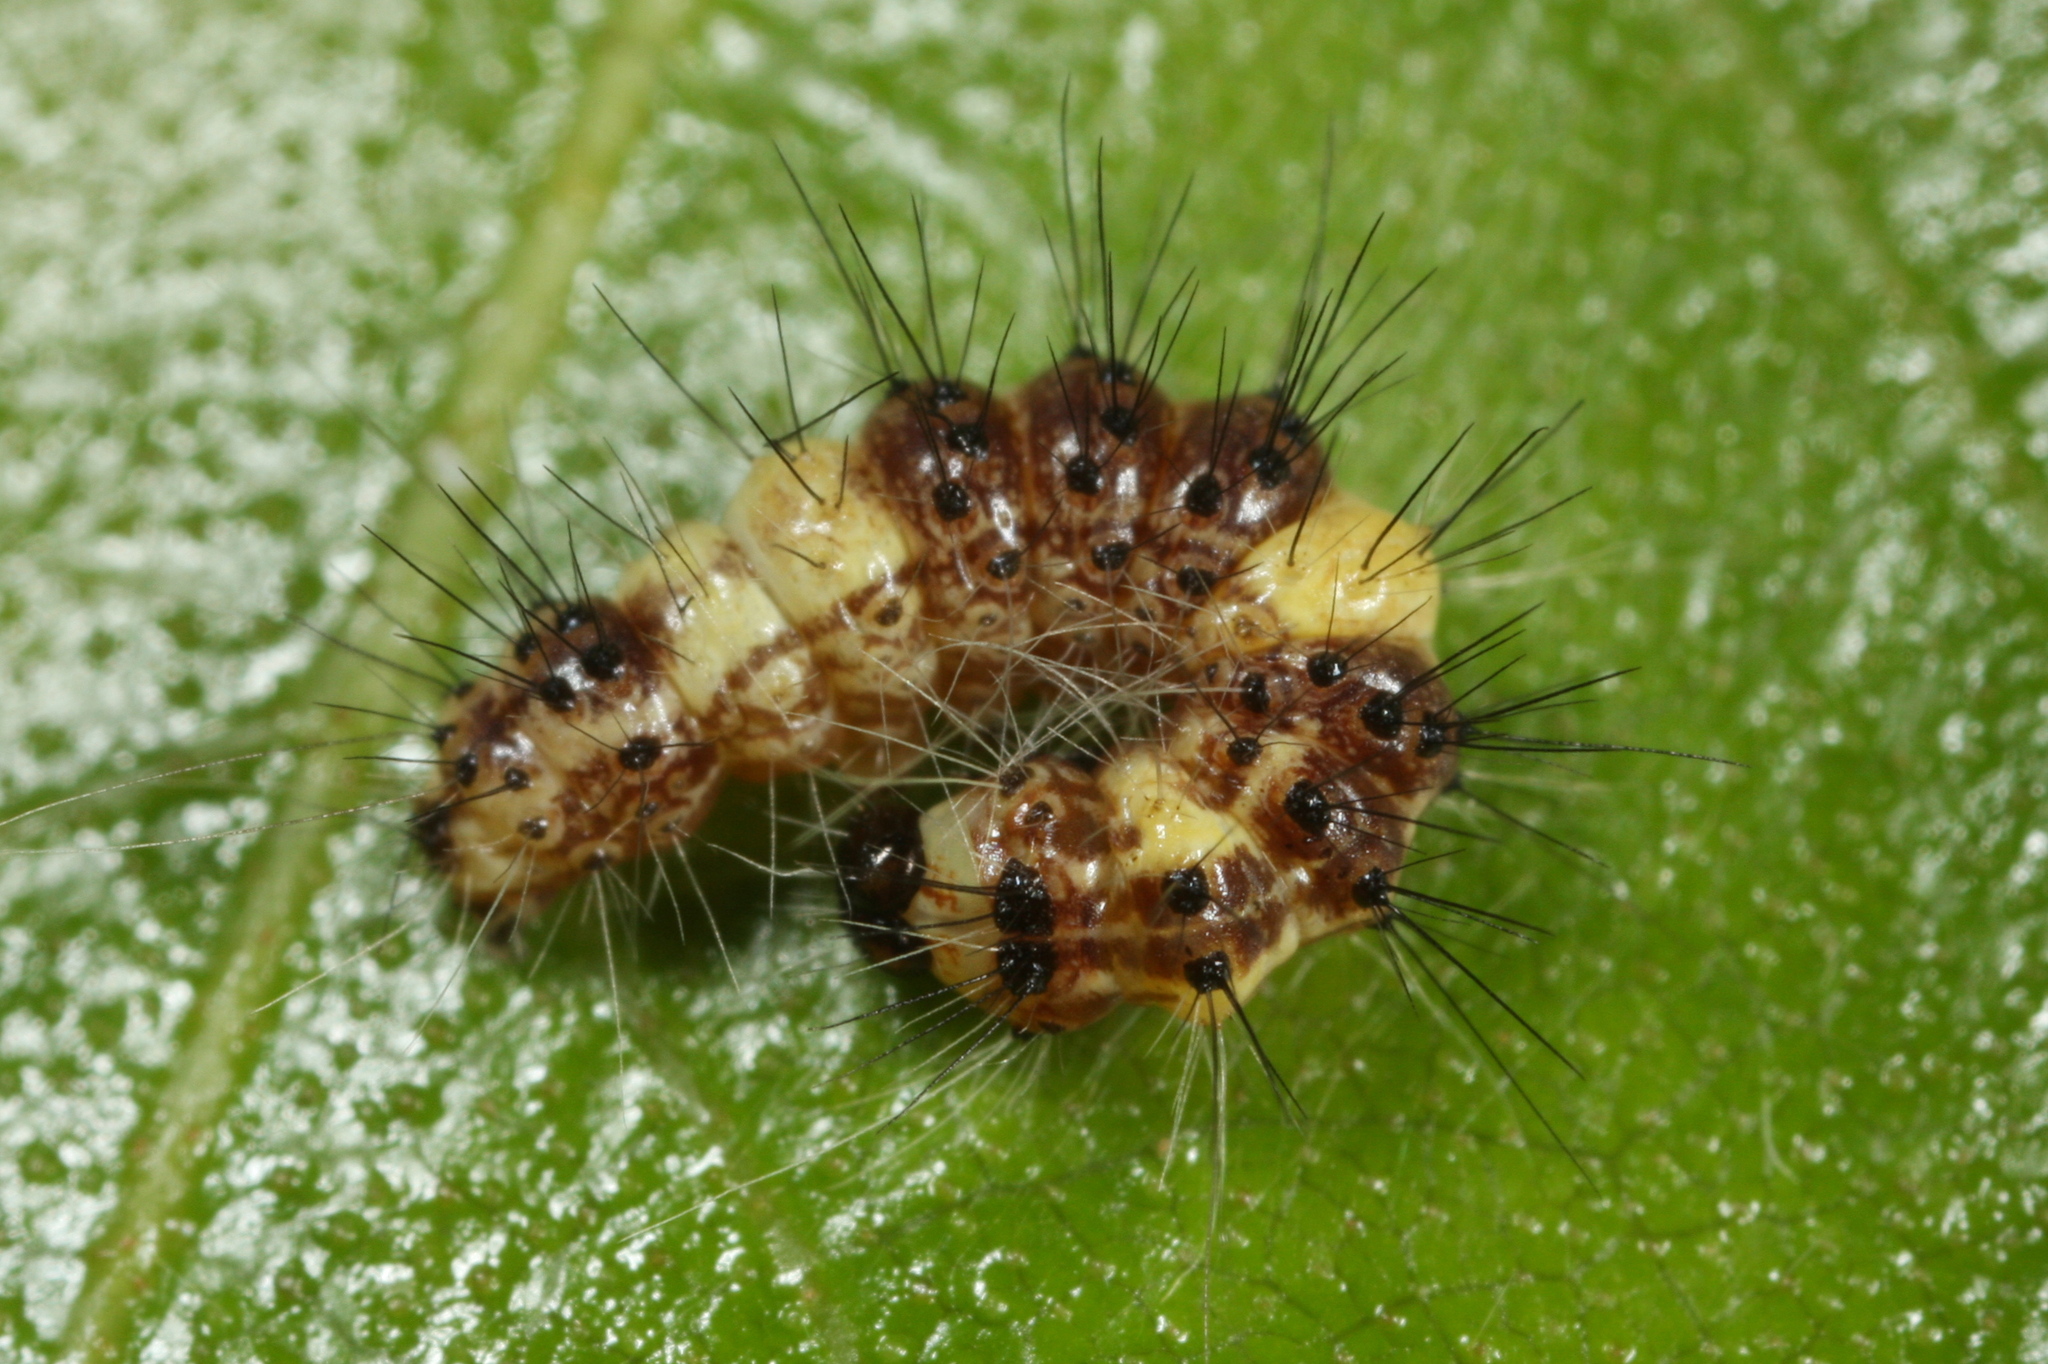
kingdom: Animalia
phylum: Arthropoda
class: Insecta
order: Lepidoptera
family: Noctuidae
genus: Acronicta
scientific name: Acronicta leporina
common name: Miller
